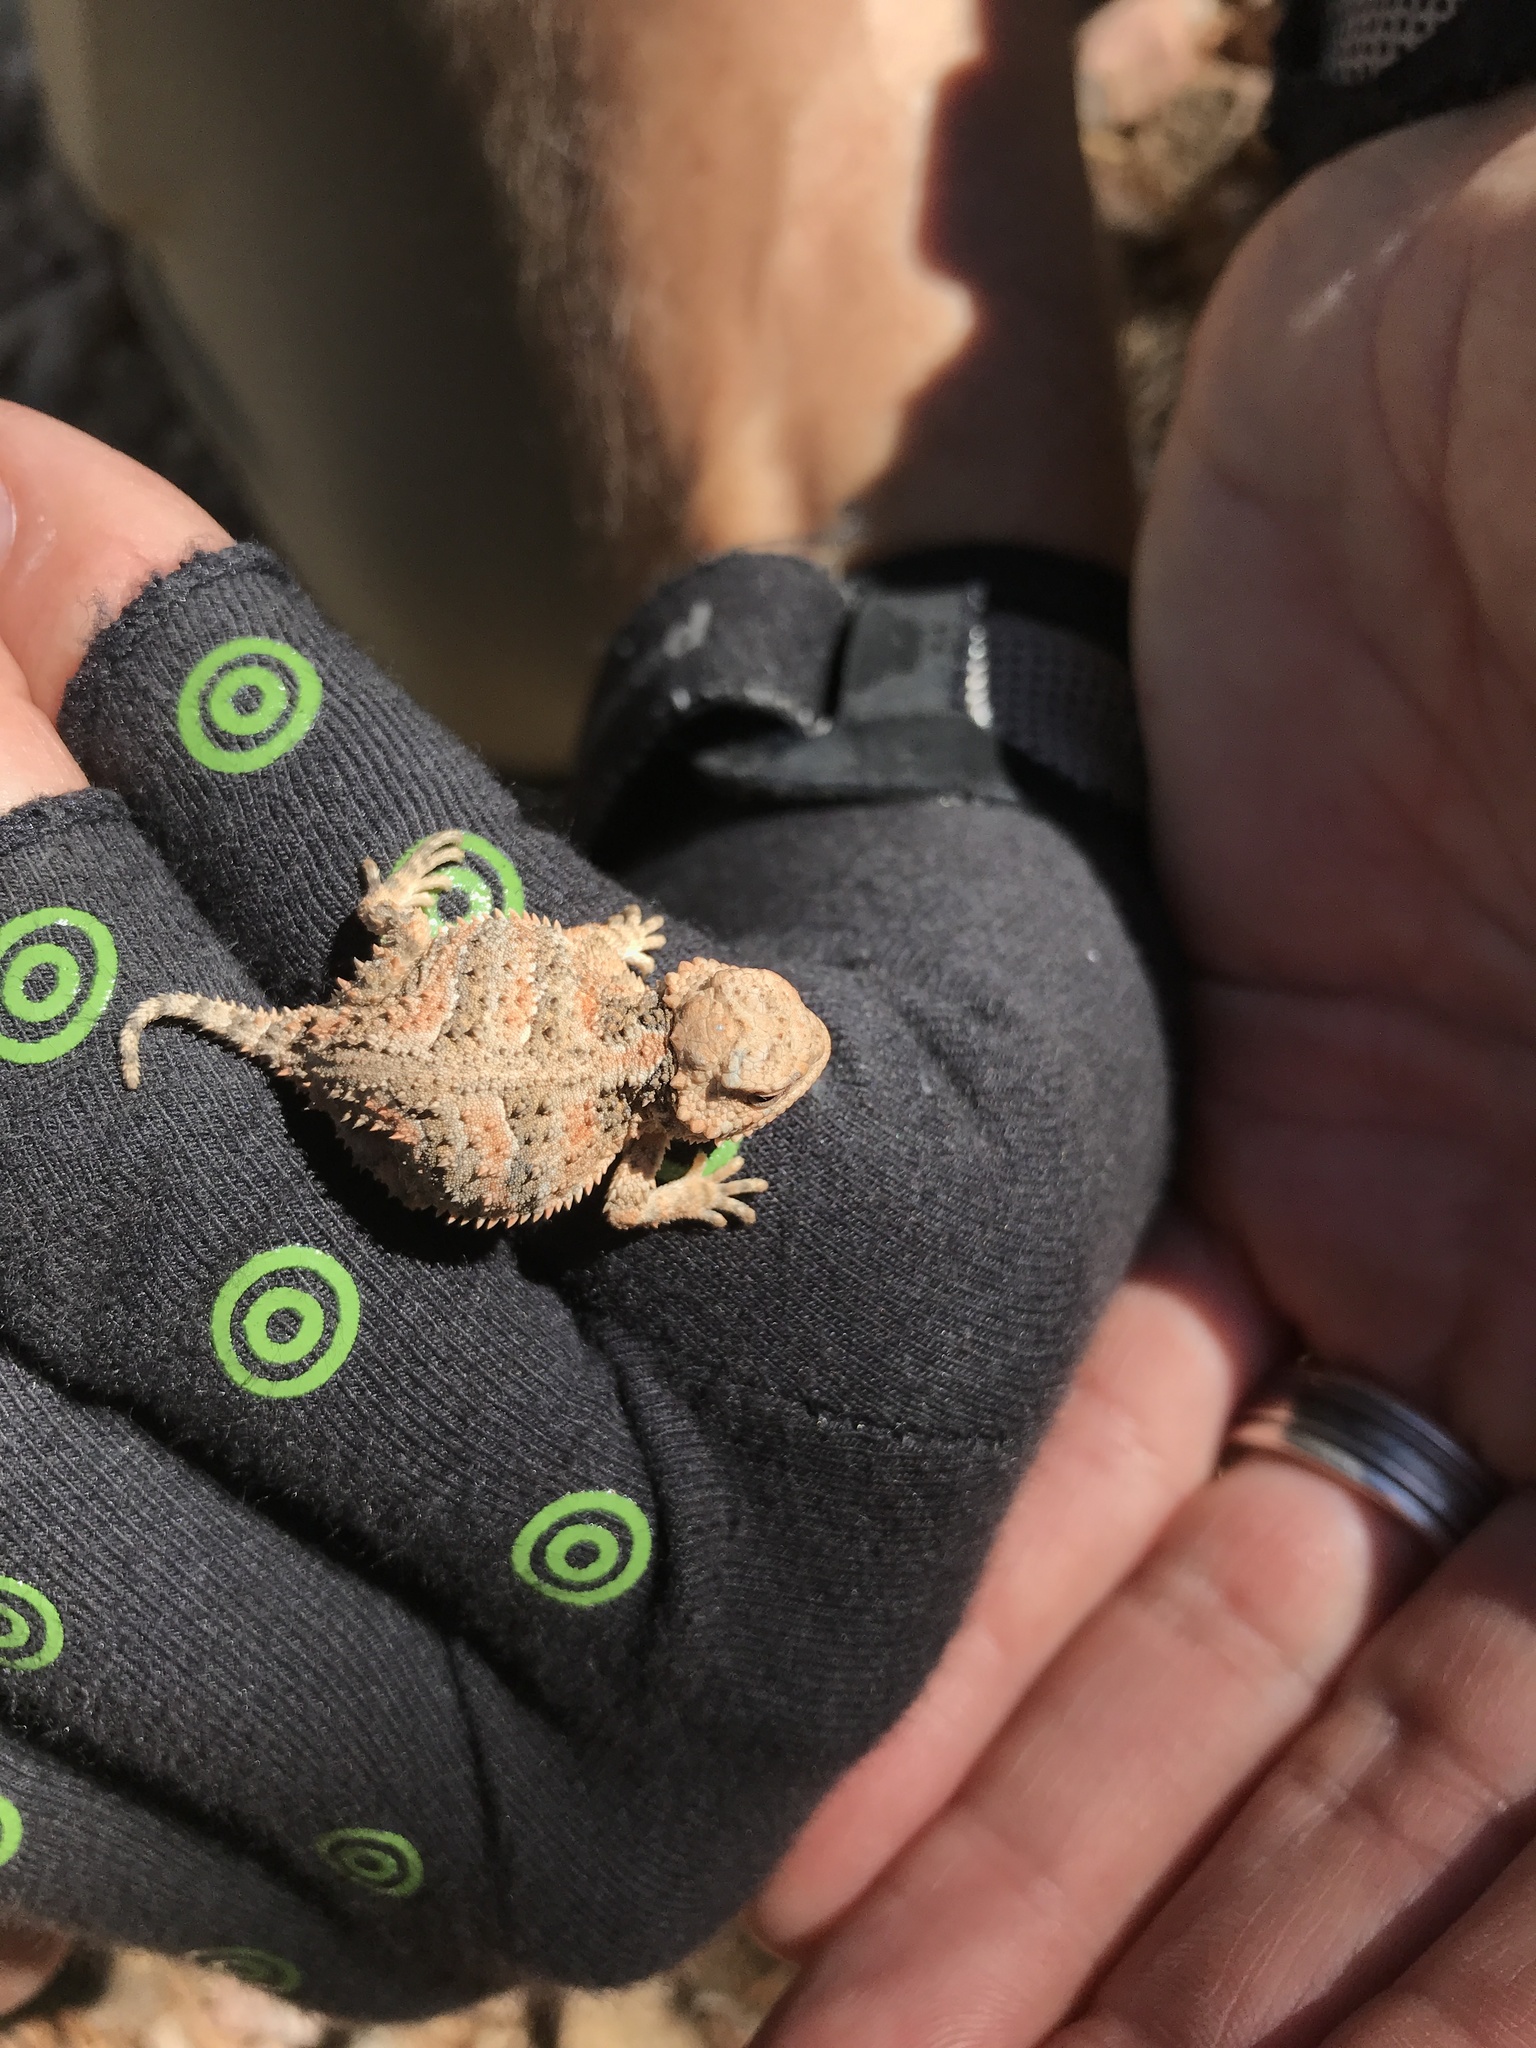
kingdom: Animalia
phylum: Chordata
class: Squamata
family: Phrynosomatidae
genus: Phrynosoma
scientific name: Phrynosoma hernandesi
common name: Greater short-horned lizard
